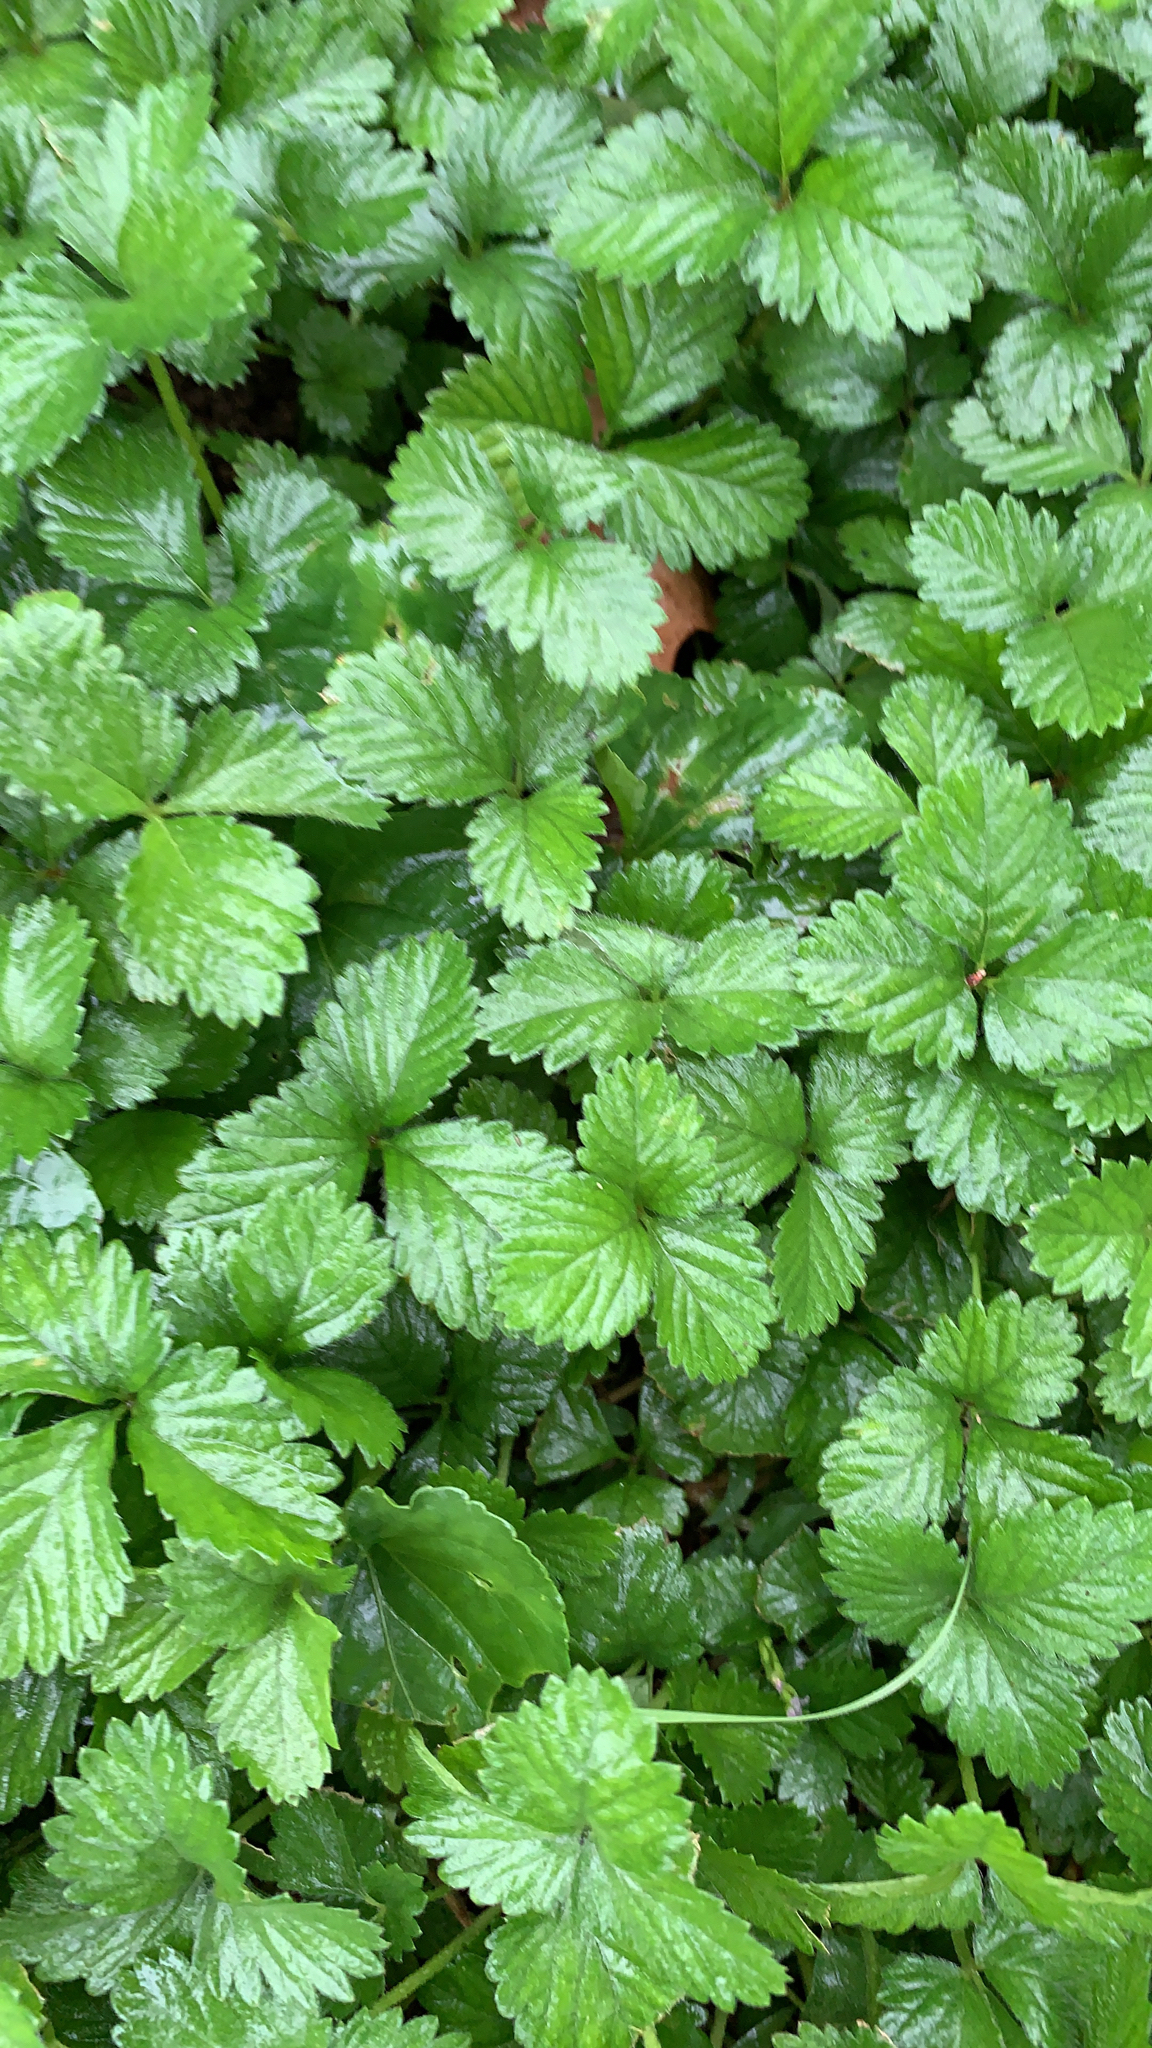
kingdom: Plantae
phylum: Tracheophyta
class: Magnoliopsida
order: Rosales
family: Rosaceae
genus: Potentilla
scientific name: Potentilla indica
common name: Yellow-flowered strawberry
